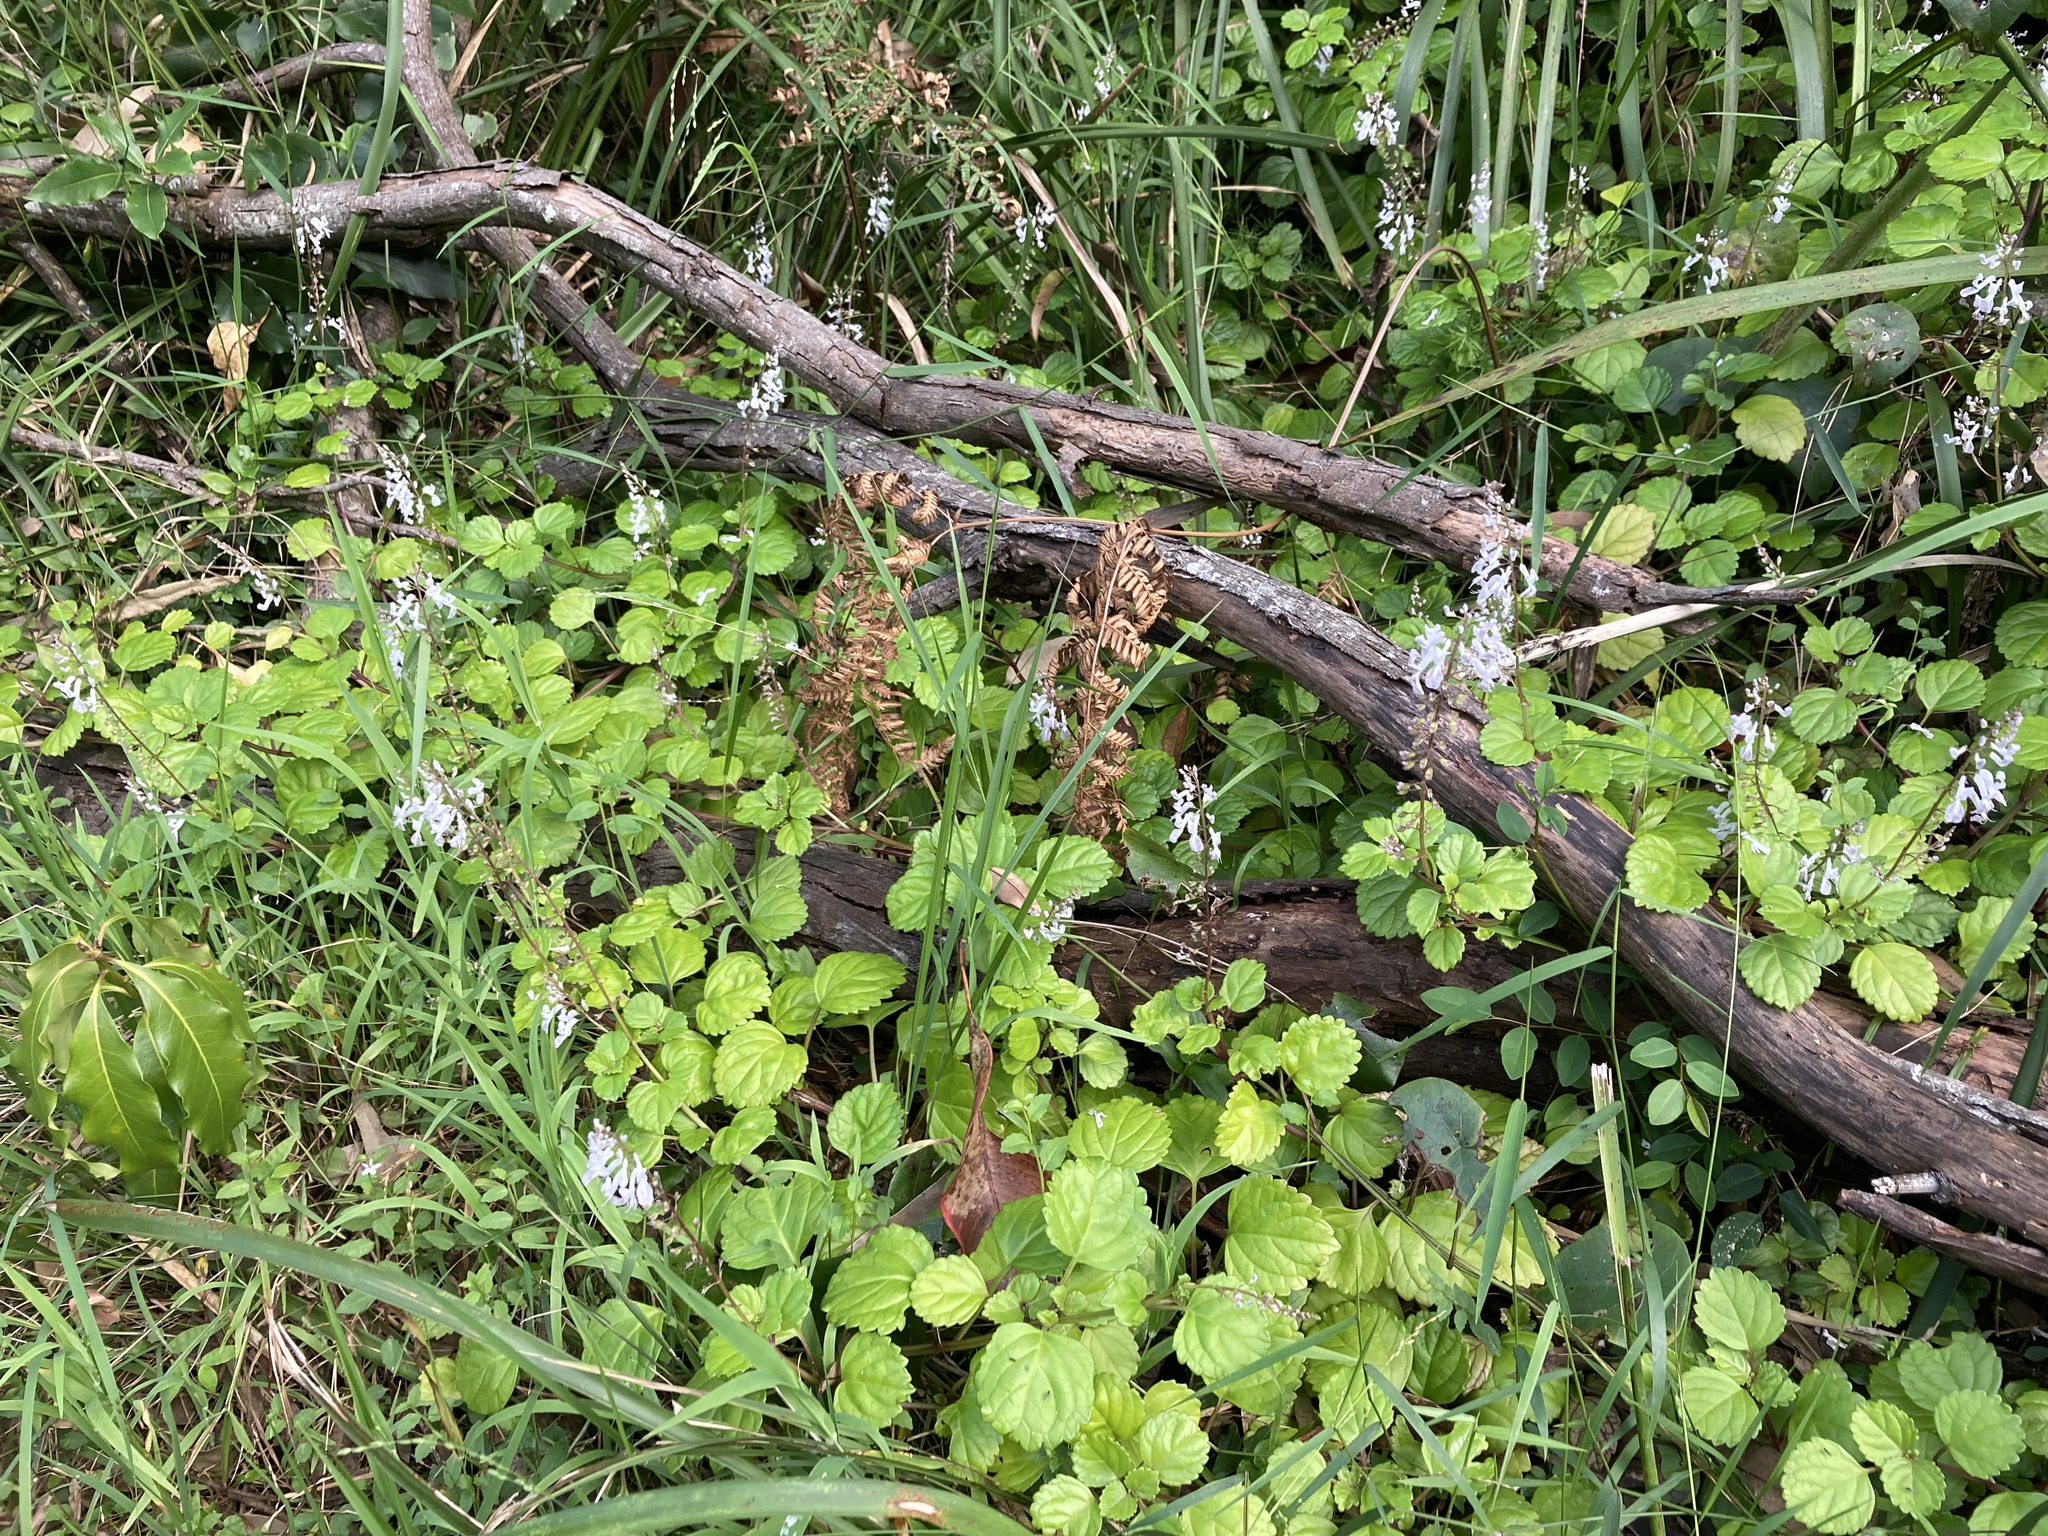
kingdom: Plantae
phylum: Tracheophyta
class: Magnoliopsida
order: Lamiales
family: Lamiaceae
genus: Plectranthus
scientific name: Plectranthus verticillatus
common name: Whorled plectranthus
